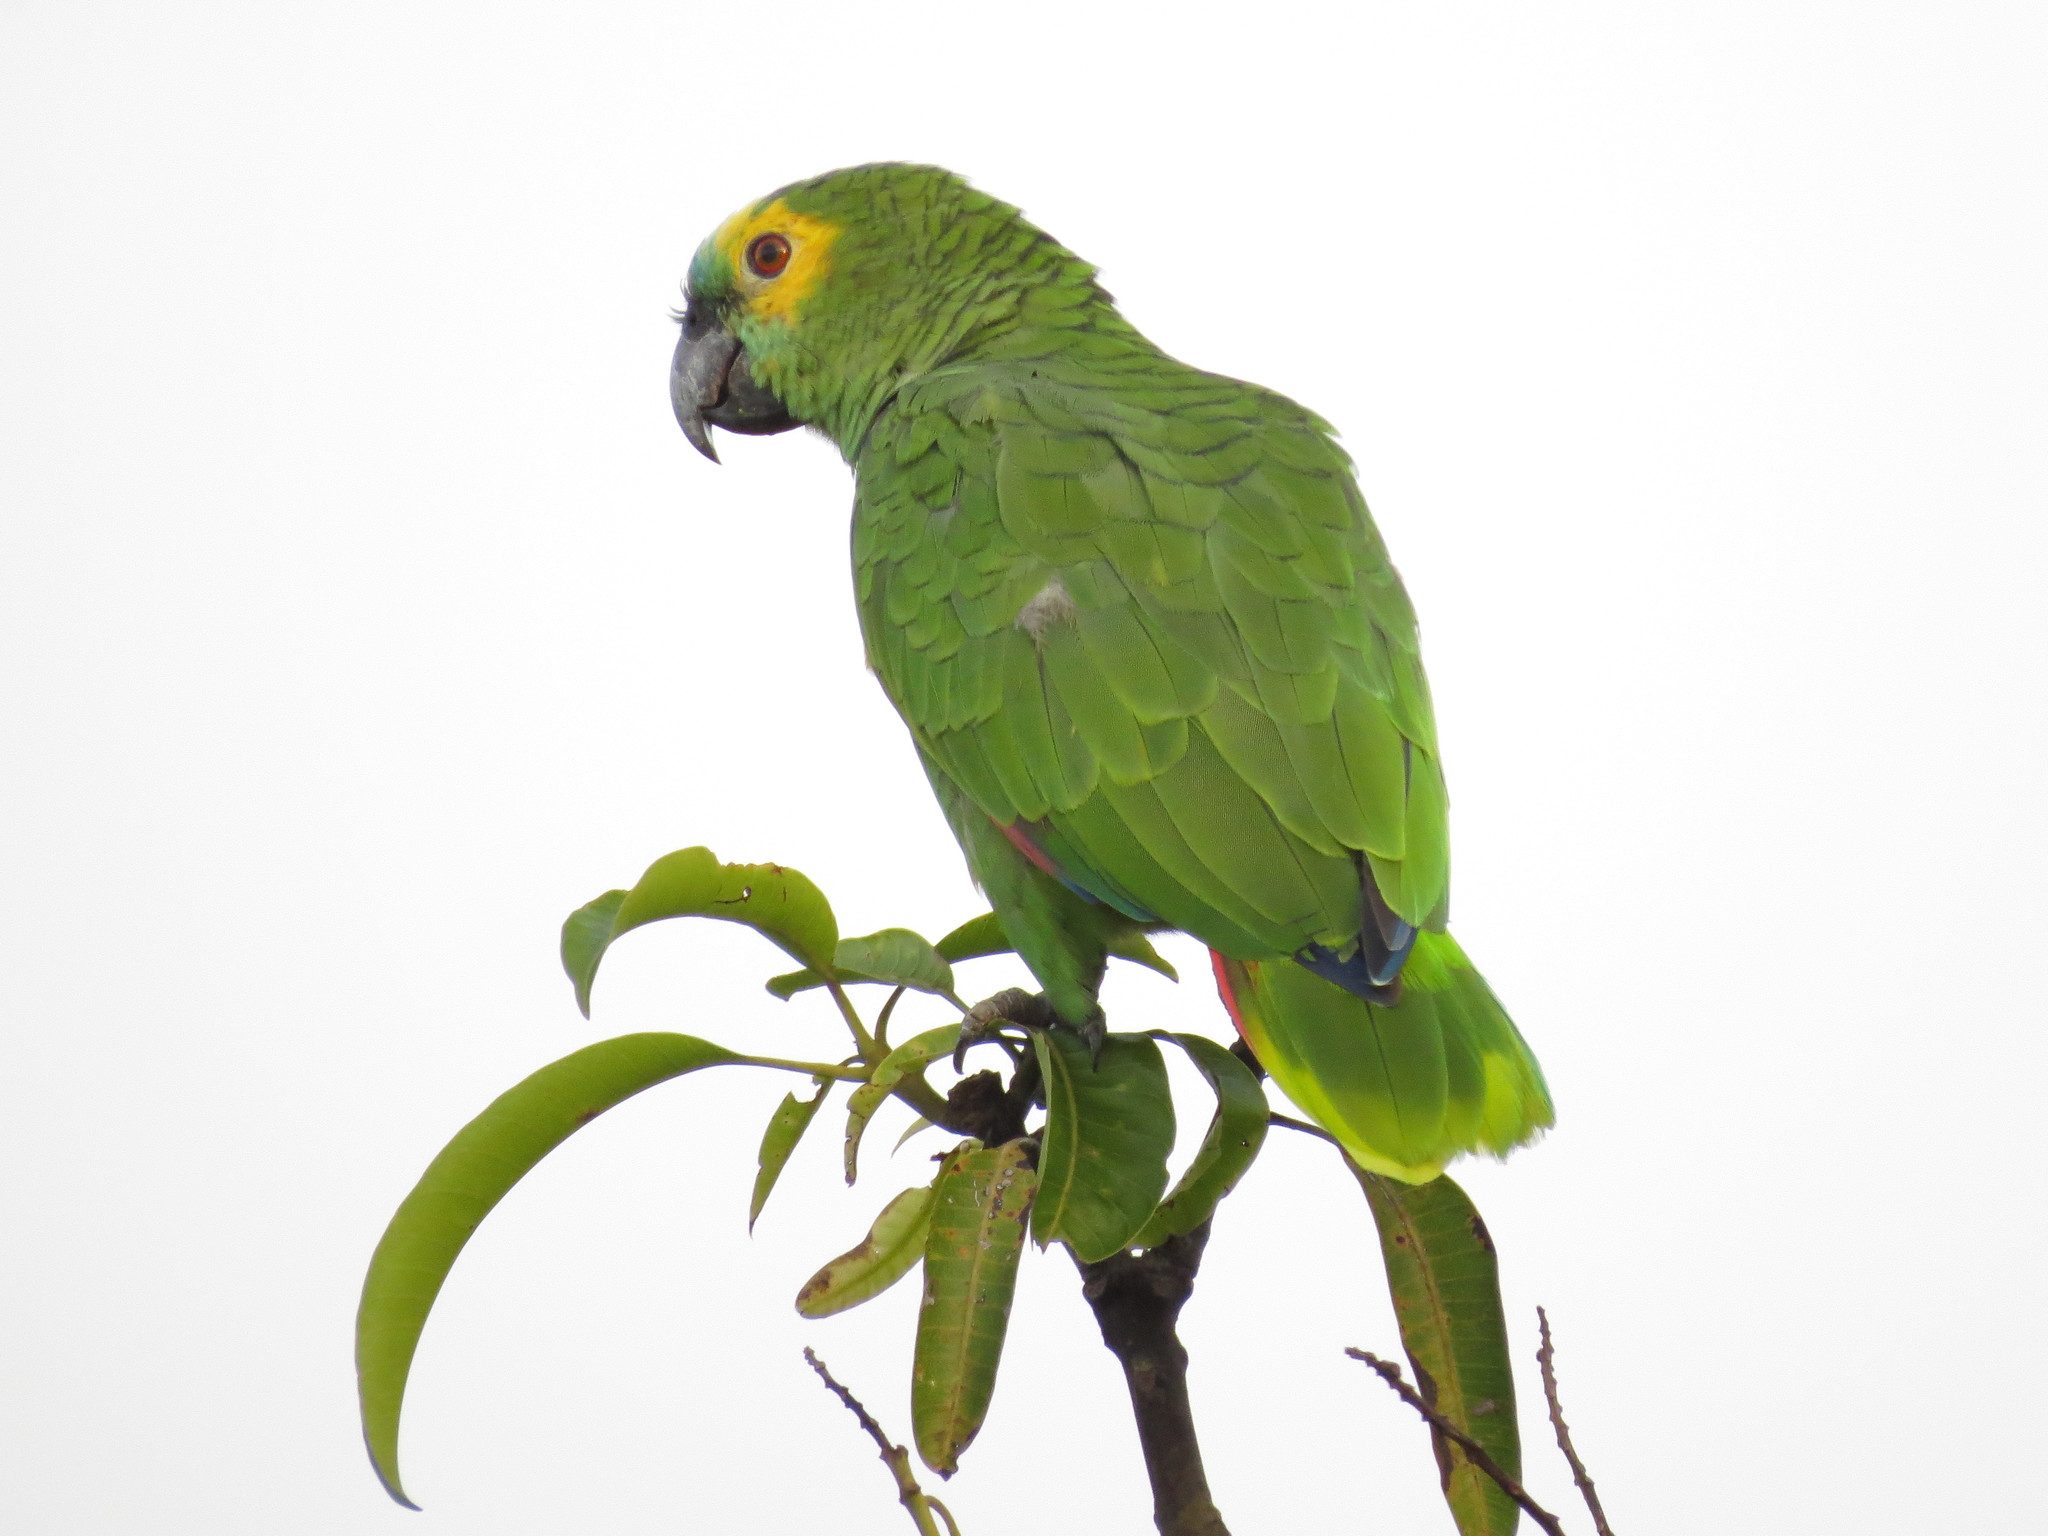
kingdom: Animalia
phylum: Chordata
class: Aves
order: Psittaciformes
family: Psittacidae
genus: Amazona
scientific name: Amazona aestiva
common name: Turquoise-fronted amazon
